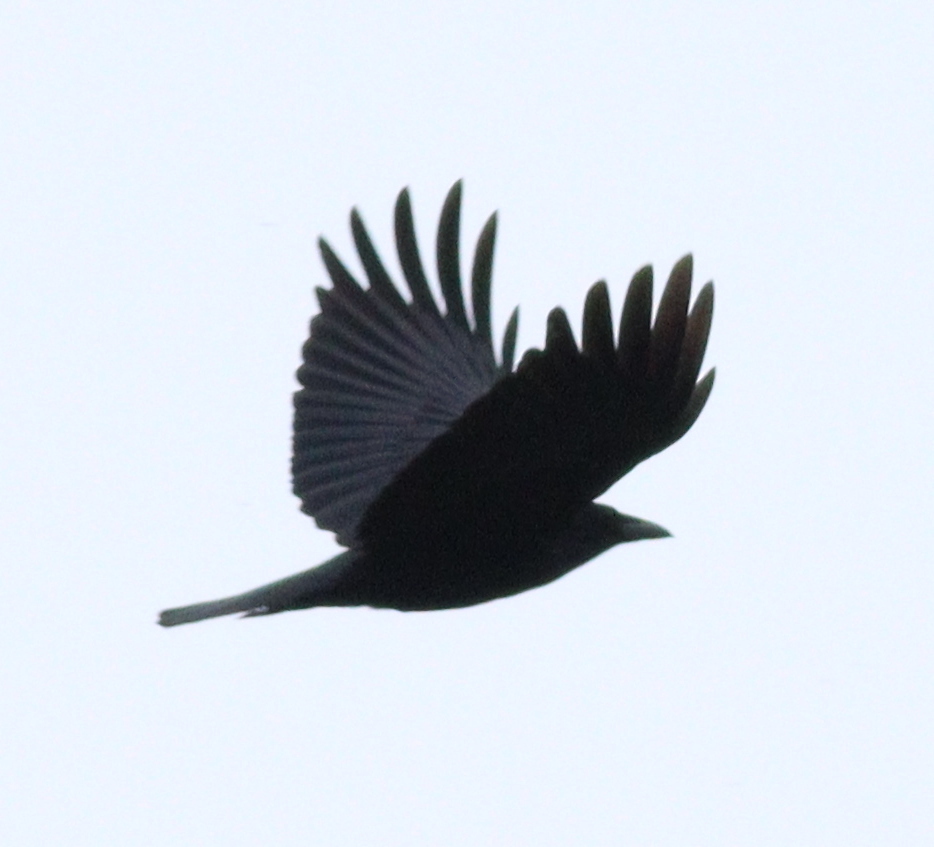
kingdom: Animalia
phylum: Chordata
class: Aves
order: Passeriformes
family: Corvidae
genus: Corvus
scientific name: Corvus corone
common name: Carrion crow
